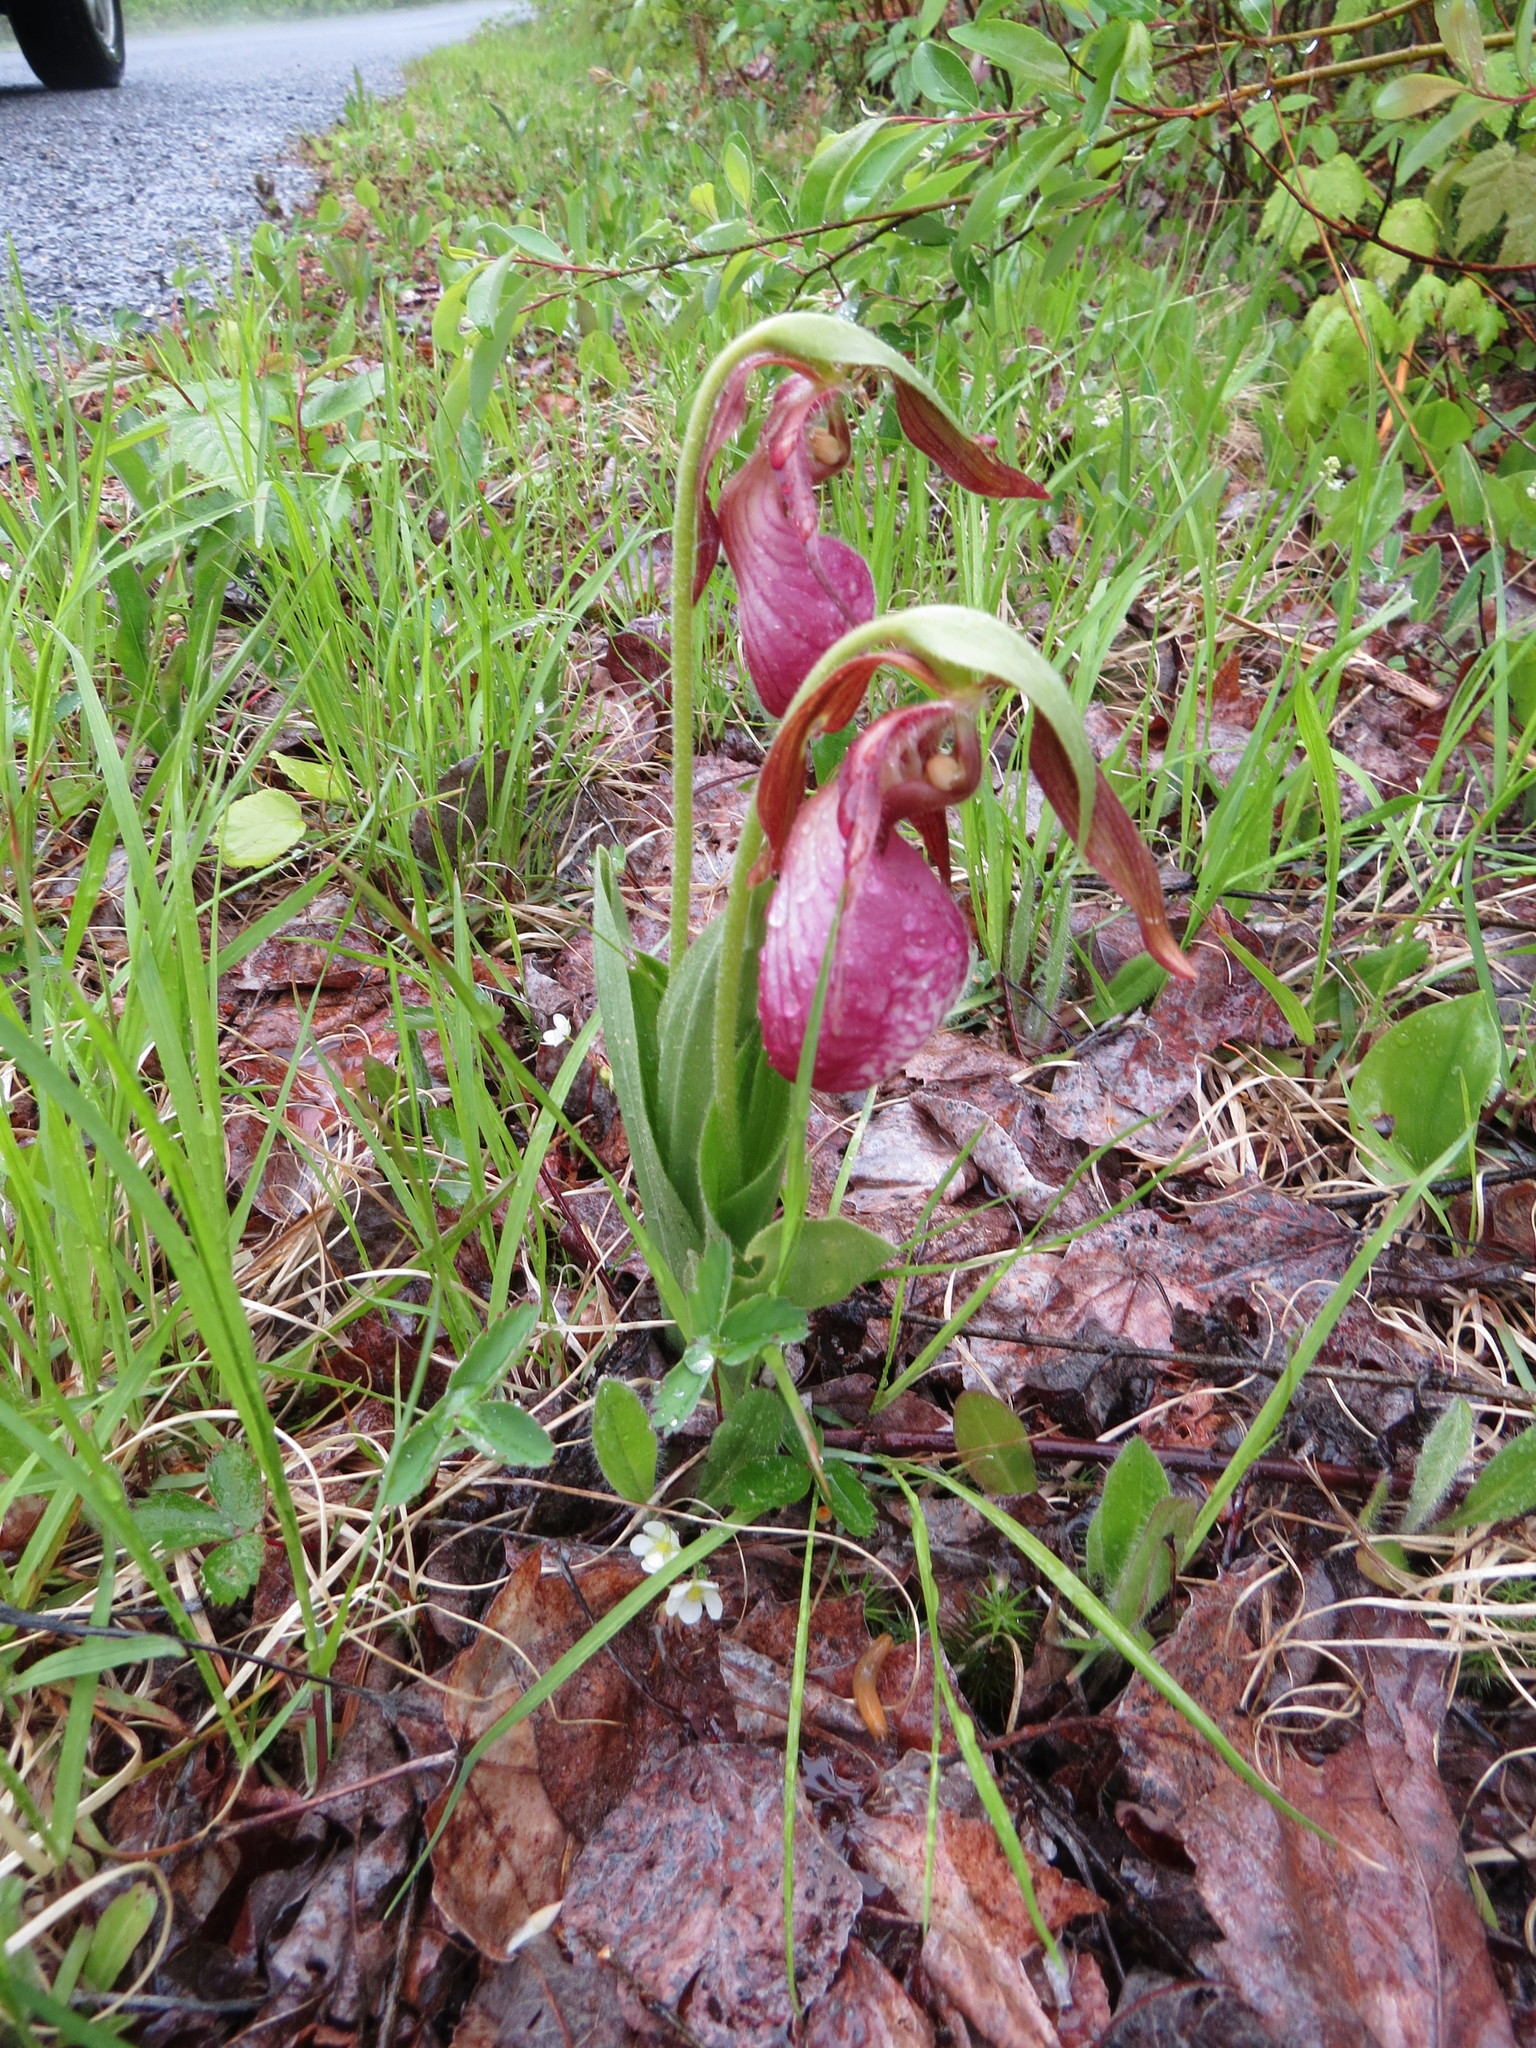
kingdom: Plantae
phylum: Tracheophyta
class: Liliopsida
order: Asparagales
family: Orchidaceae
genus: Cypripedium
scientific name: Cypripedium acaule
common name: Pink lady's-slipper
